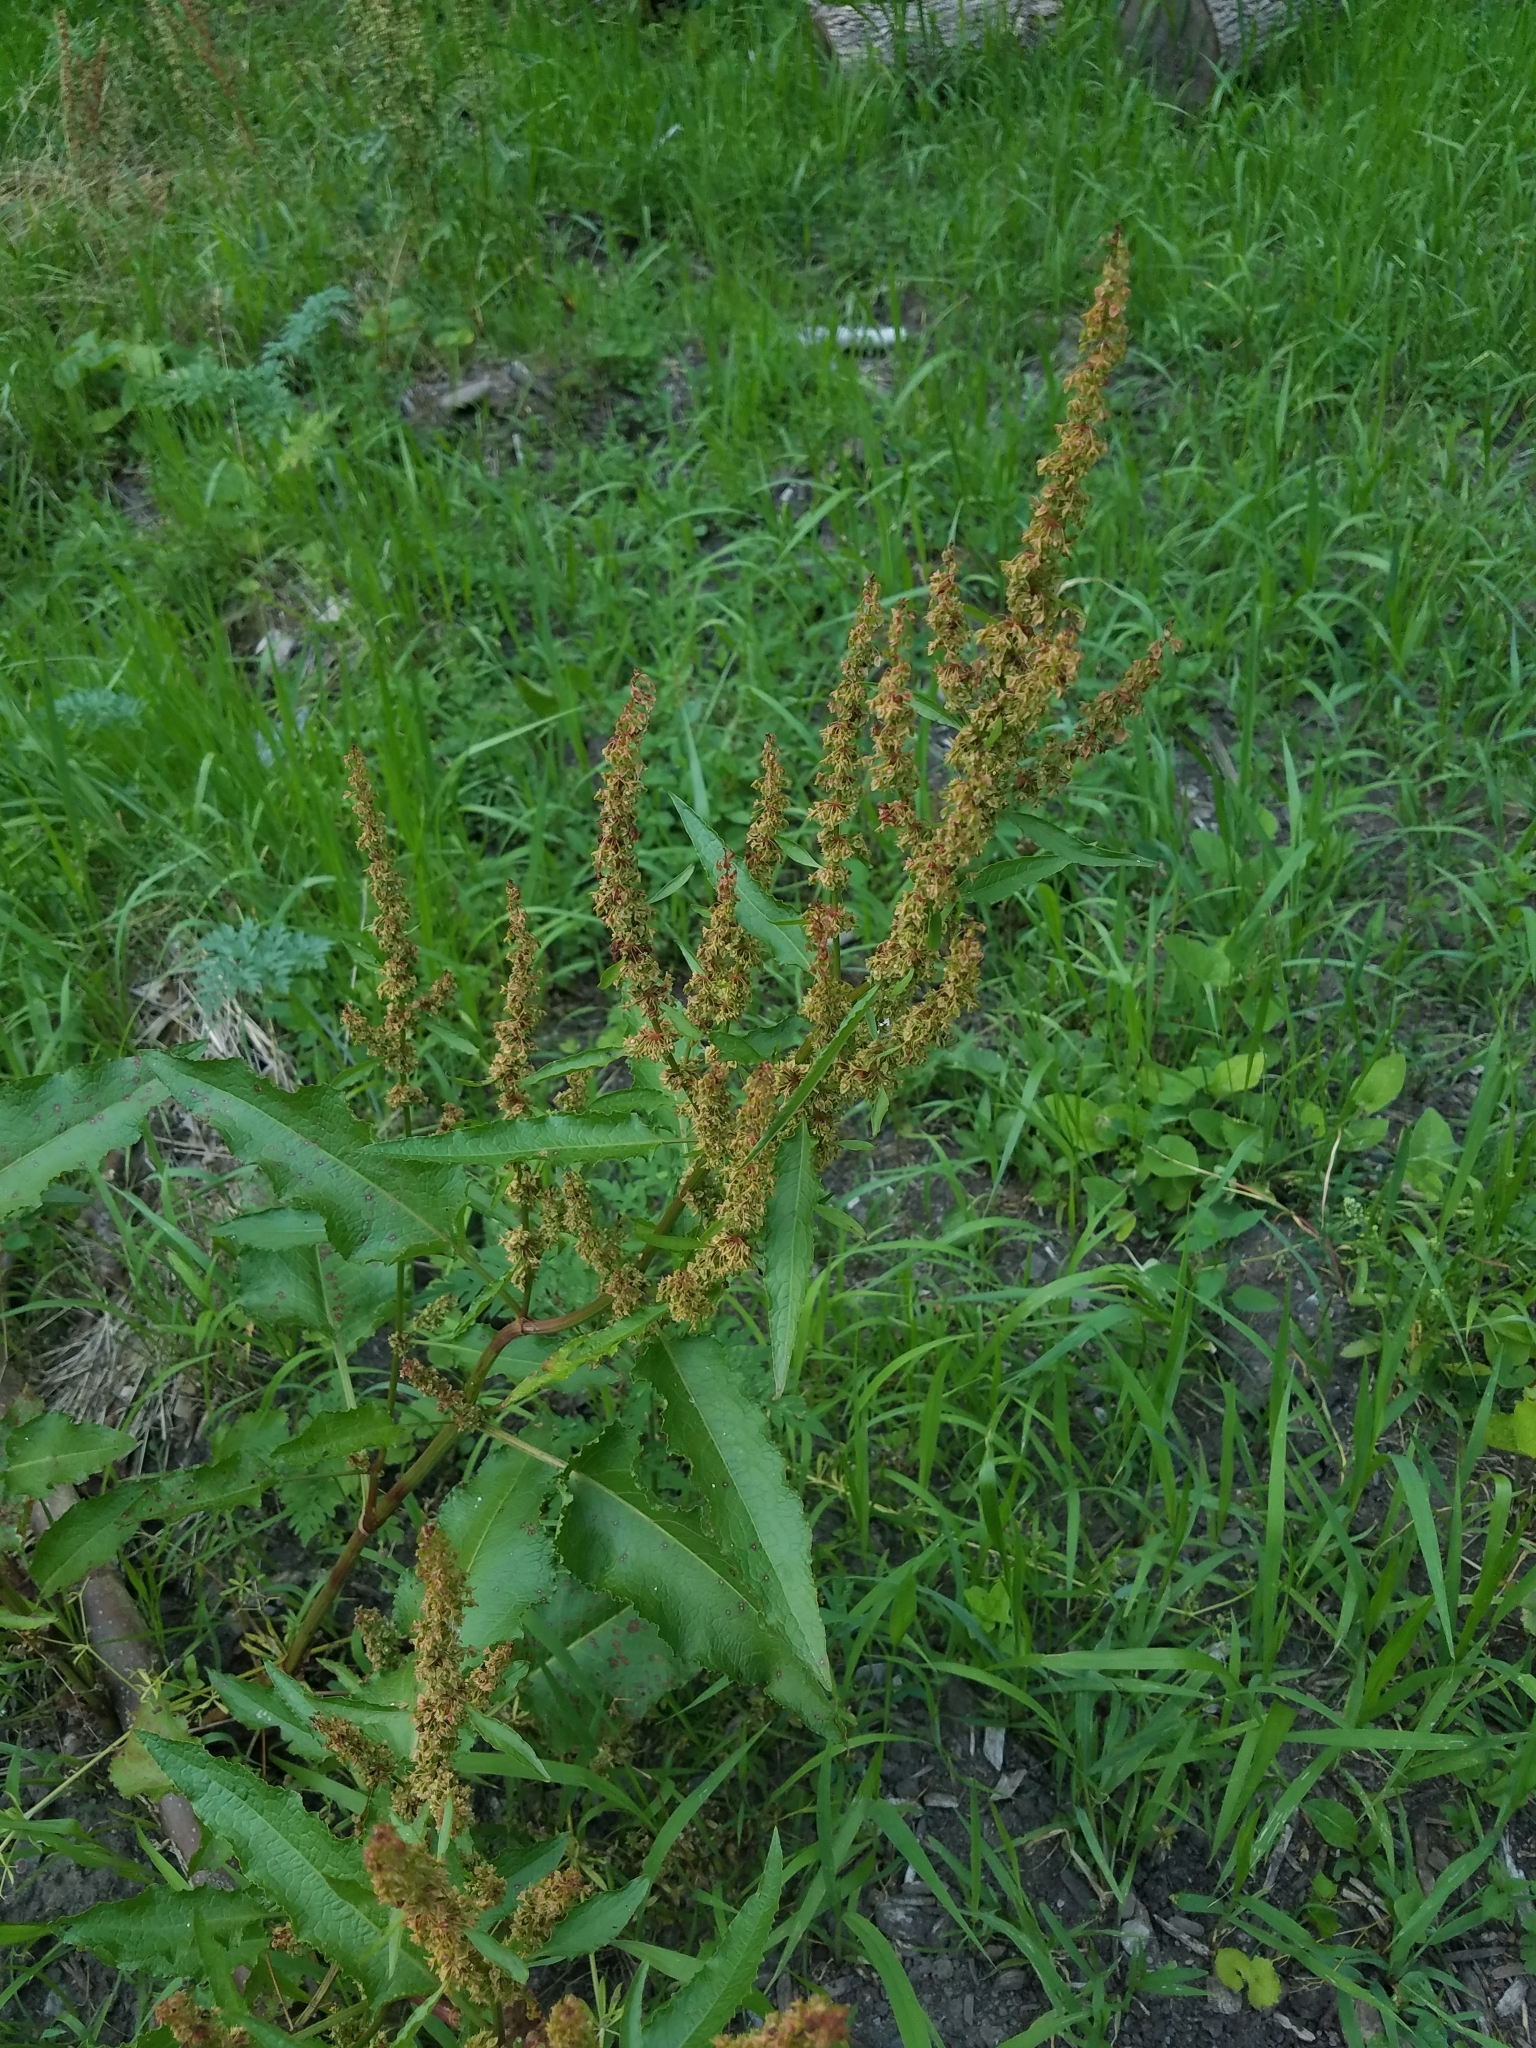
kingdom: Plantae
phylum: Tracheophyta
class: Magnoliopsida
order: Caryophyllales
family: Polygonaceae
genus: Rumex
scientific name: Rumex crispus
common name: Curled dock
